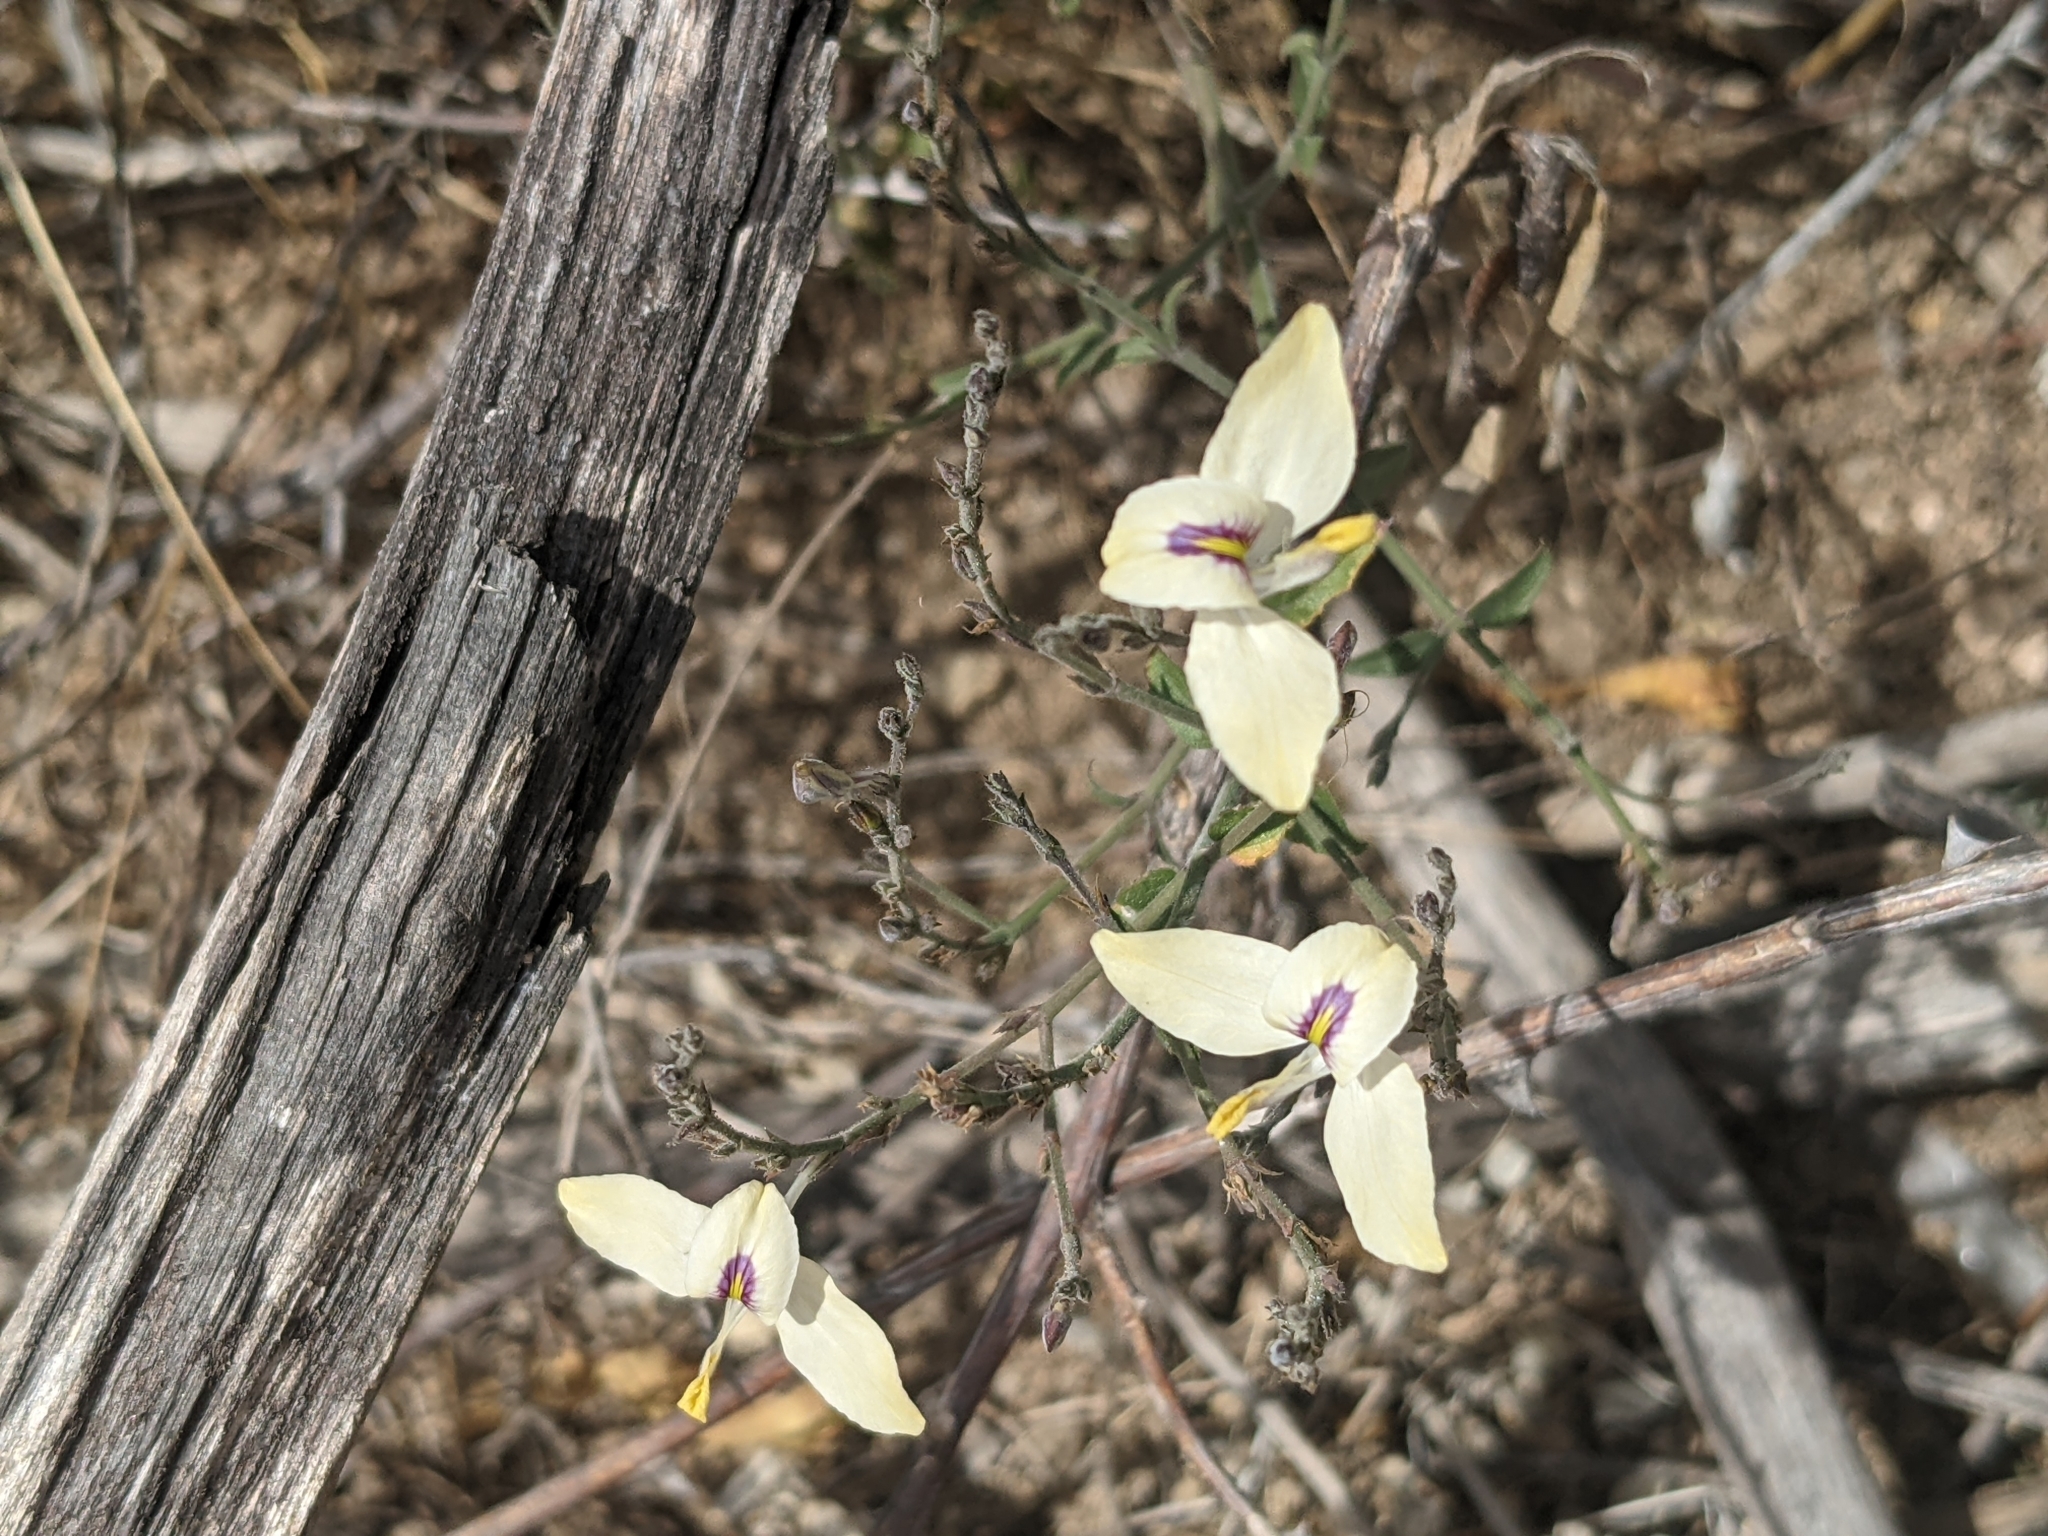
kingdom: Plantae
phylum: Tracheophyta
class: Magnoliopsida
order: Lamiales
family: Acanthaceae
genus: Carlowrightia
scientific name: Carlowrightia arizonica
